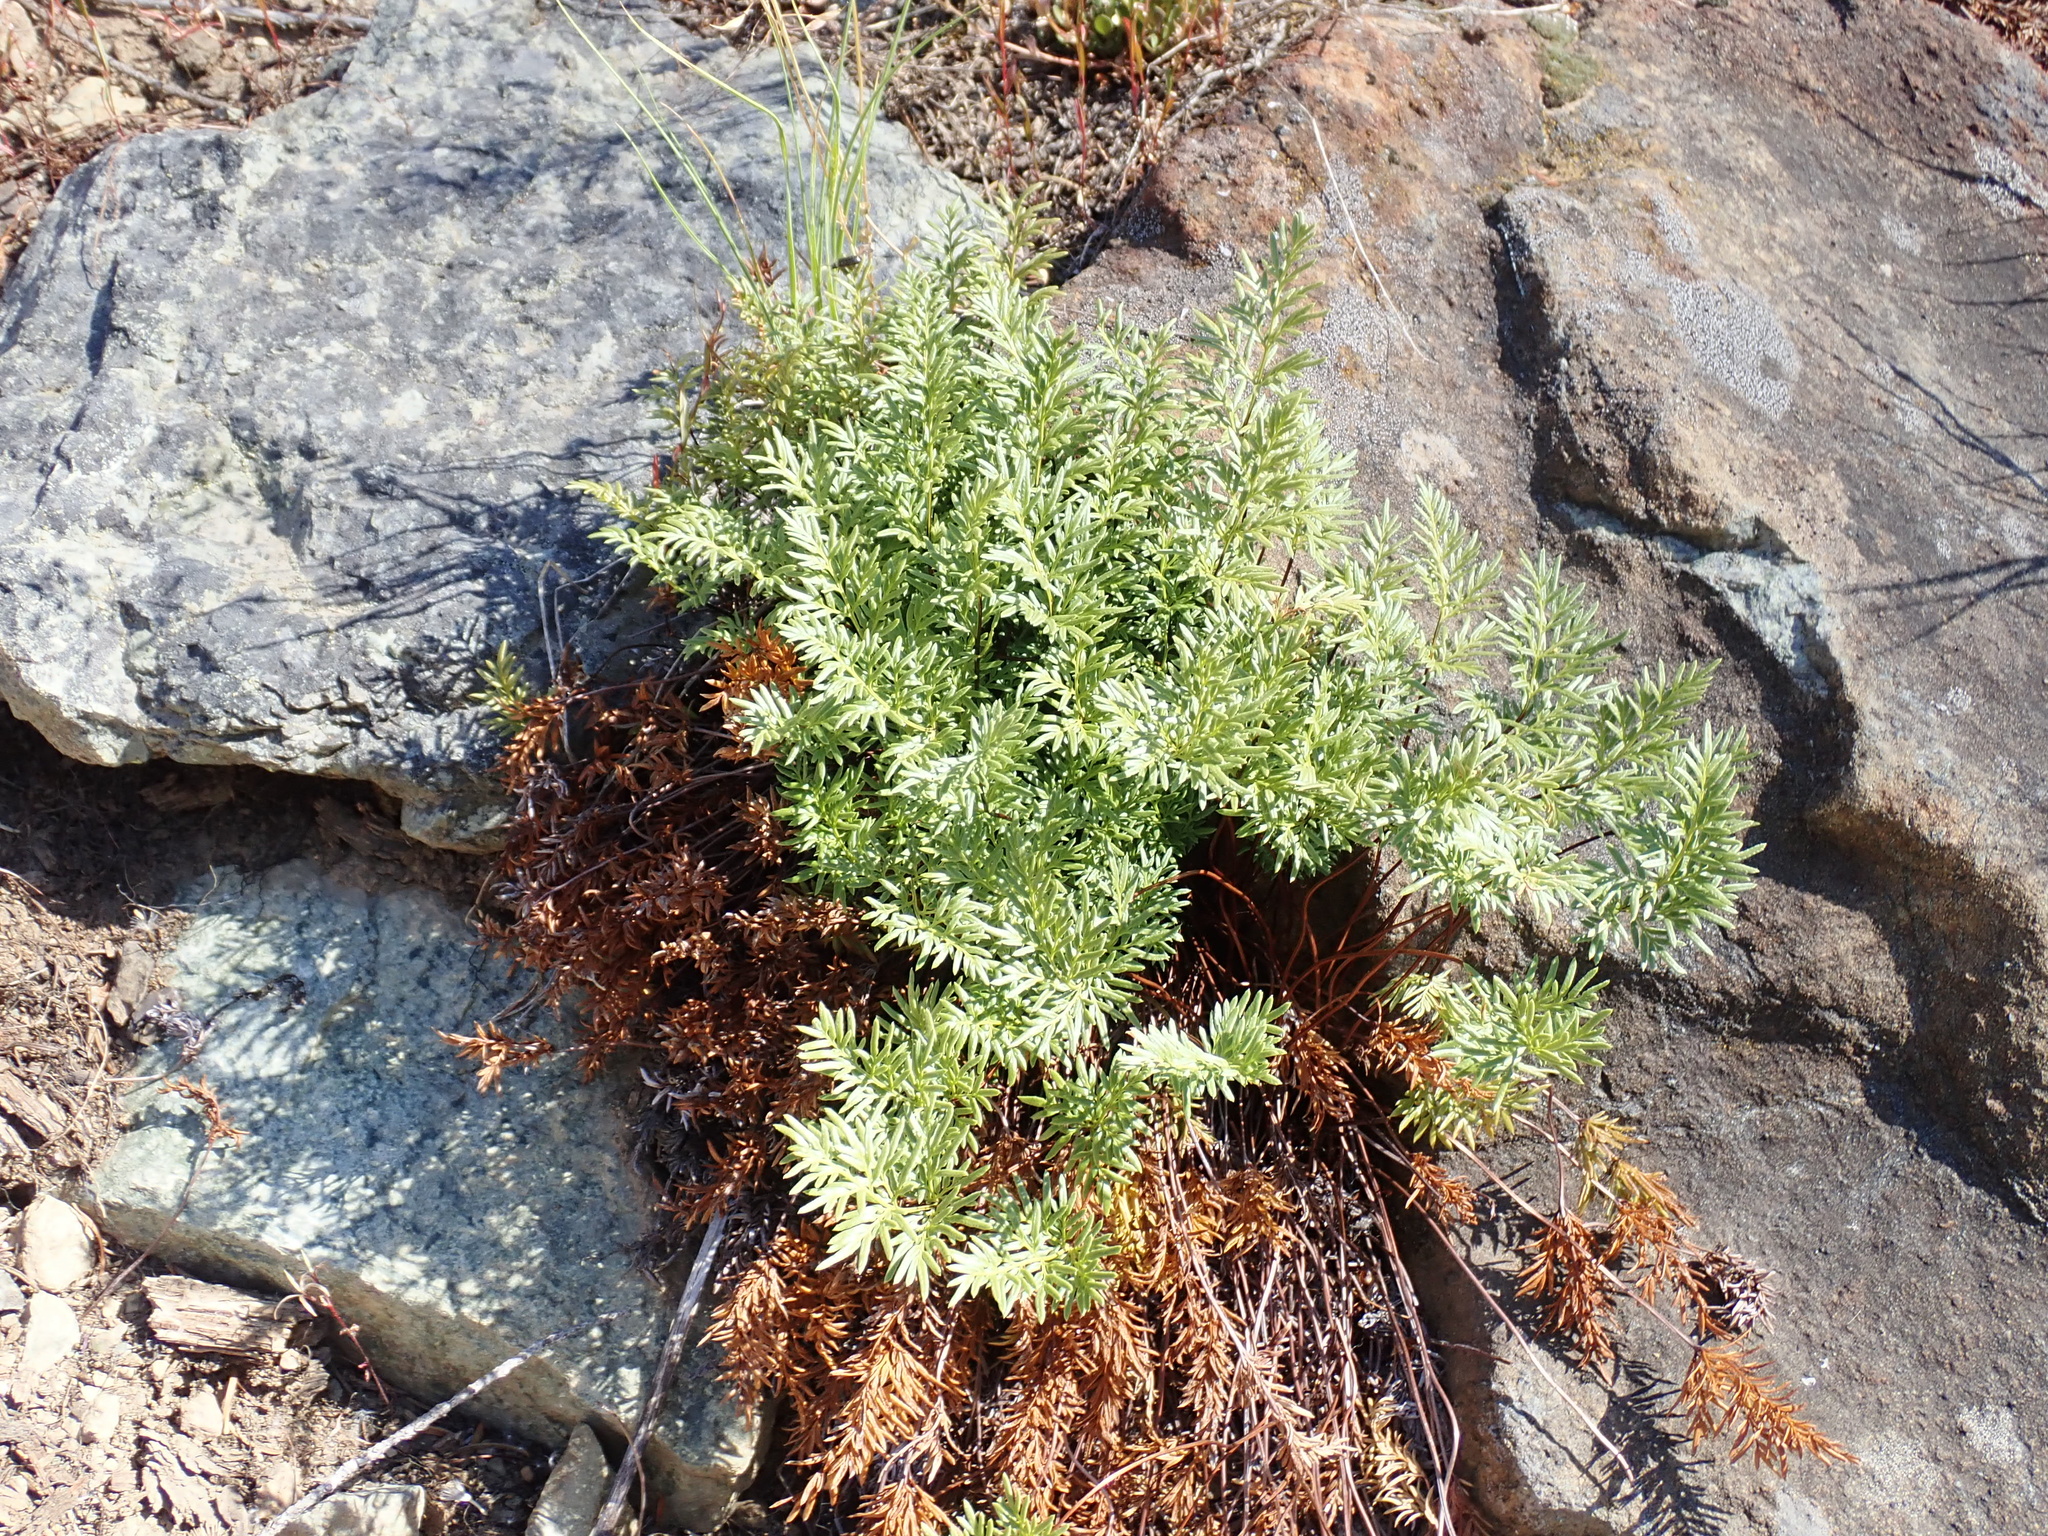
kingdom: Plantae
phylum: Tracheophyta
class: Polypodiopsida
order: Polypodiales
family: Pteridaceae
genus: Aspidotis
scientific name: Aspidotis densa
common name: Indian's dream
